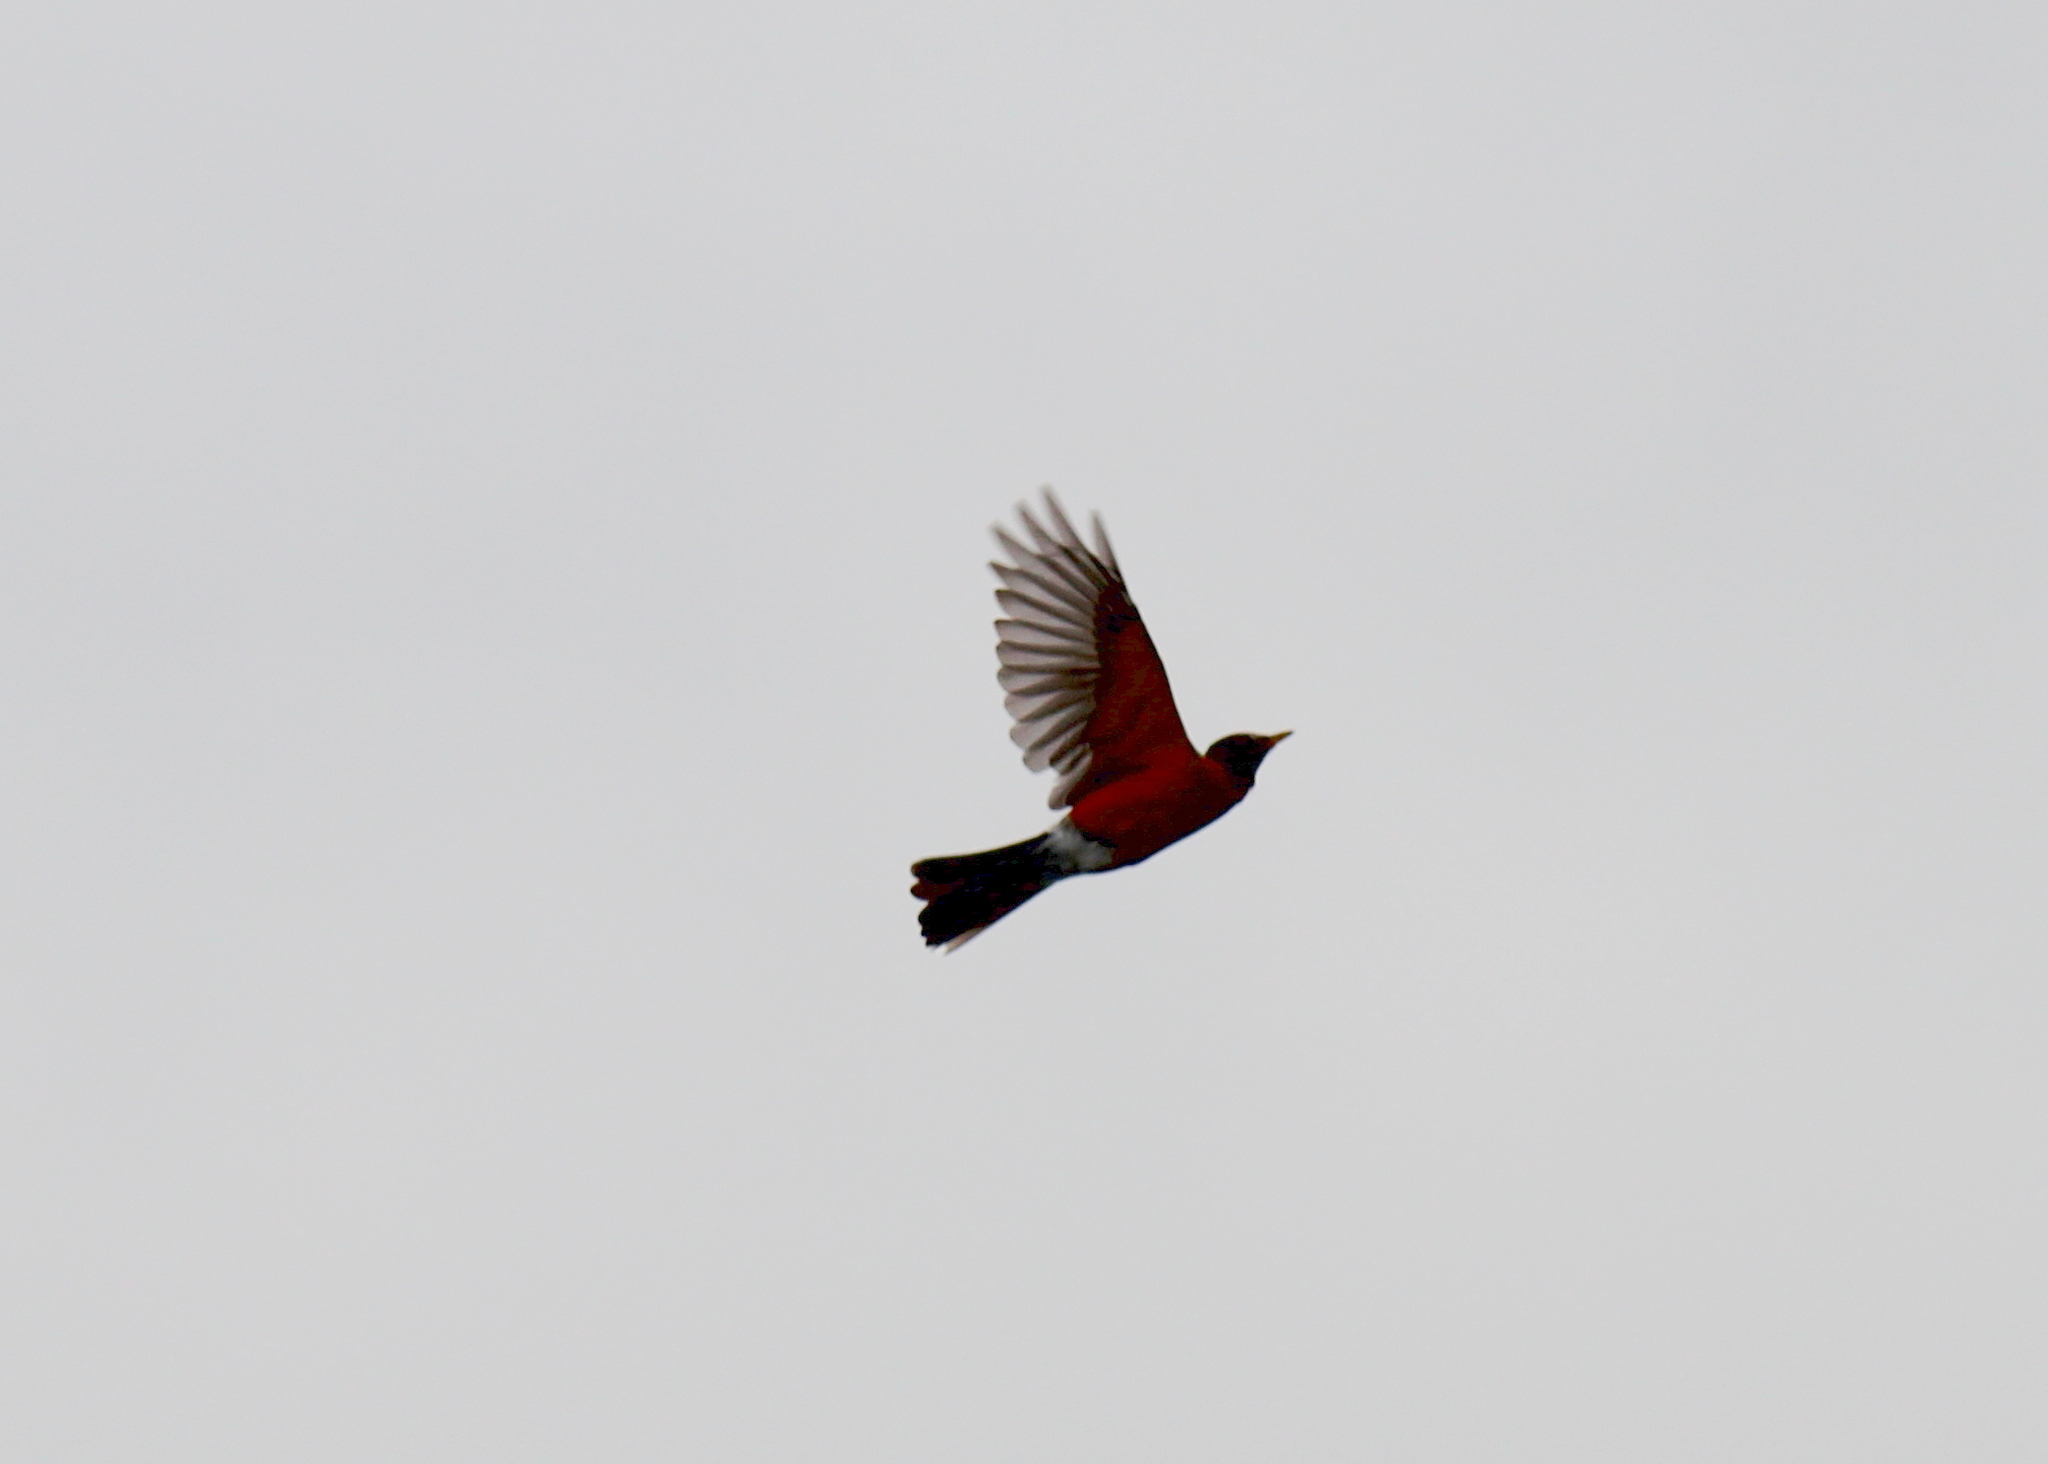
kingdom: Animalia
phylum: Chordata
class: Aves
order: Passeriformes
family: Turdidae
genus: Turdus
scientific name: Turdus migratorius
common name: American robin
